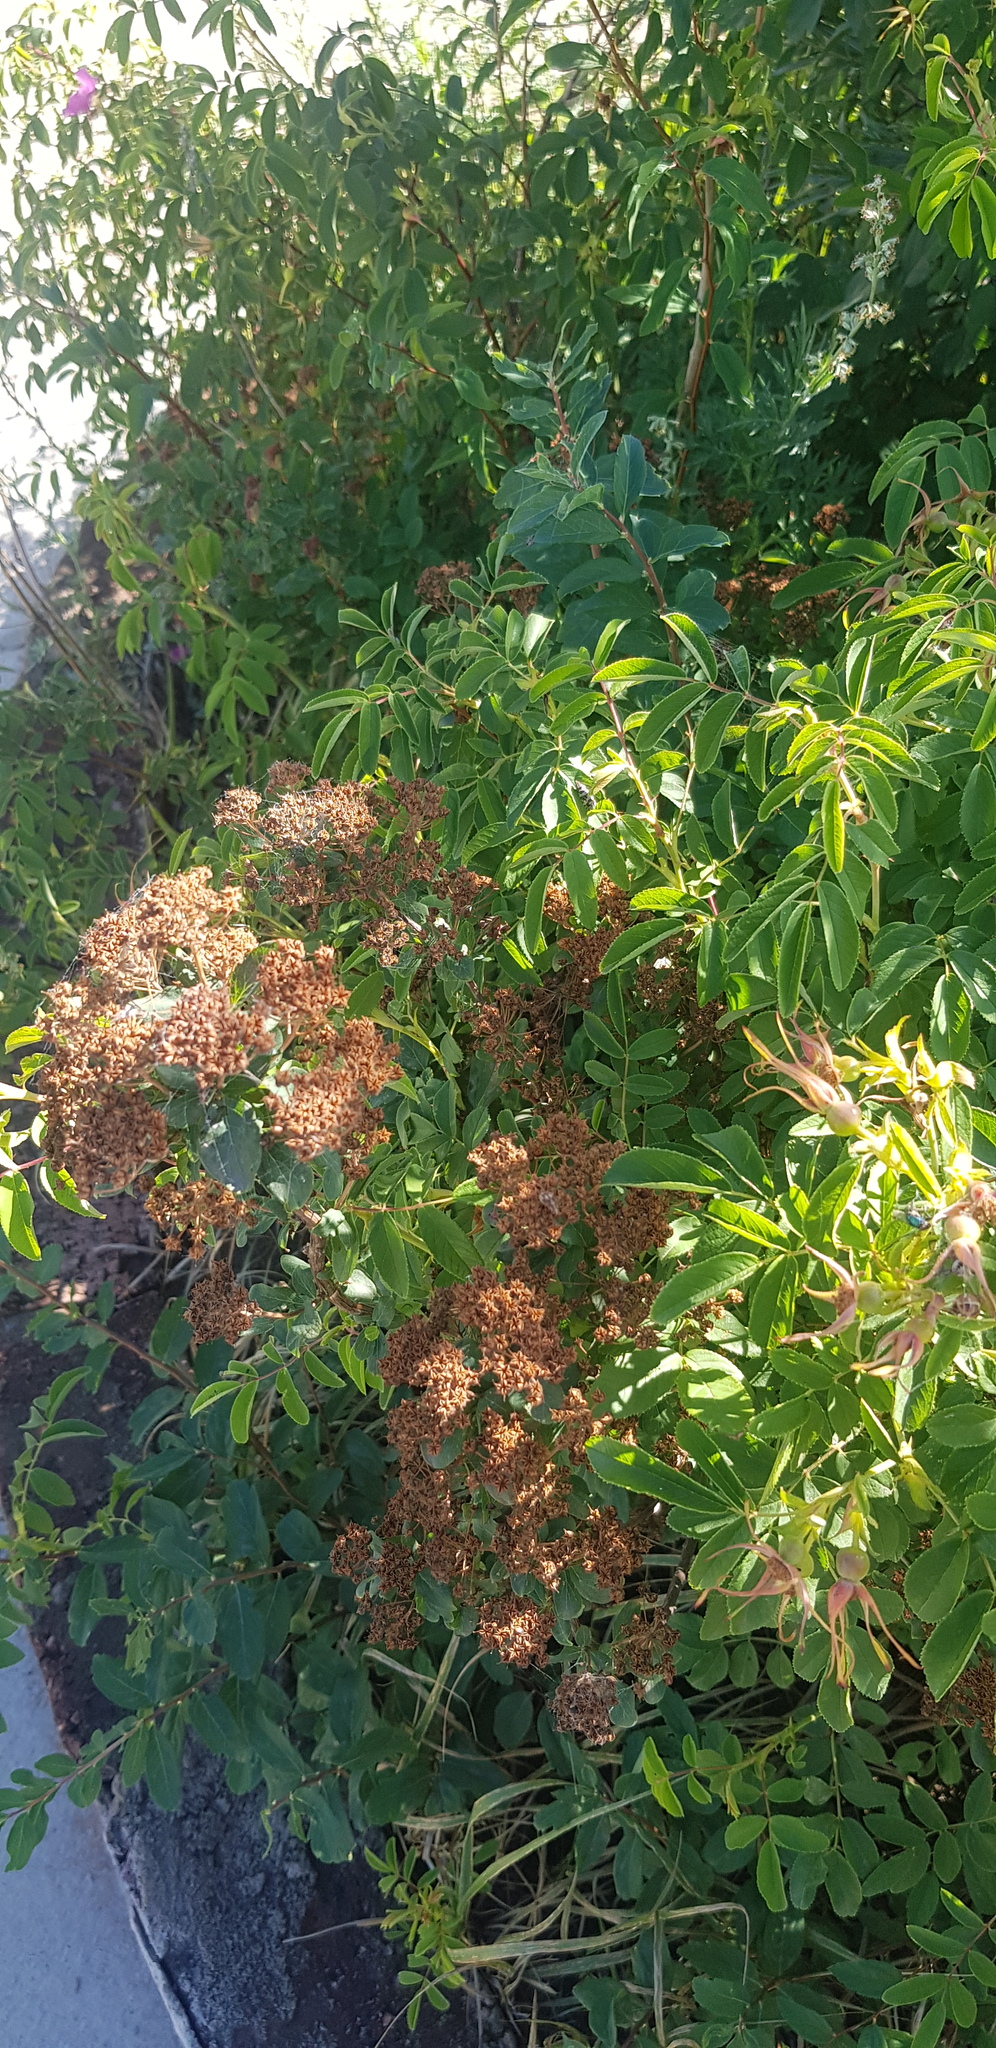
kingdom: Plantae
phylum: Tracheophyta
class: Magnoliopsida
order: Rosales
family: Rosaceae
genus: Spiraea
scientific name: Spiraea media
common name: Russian spiraea
